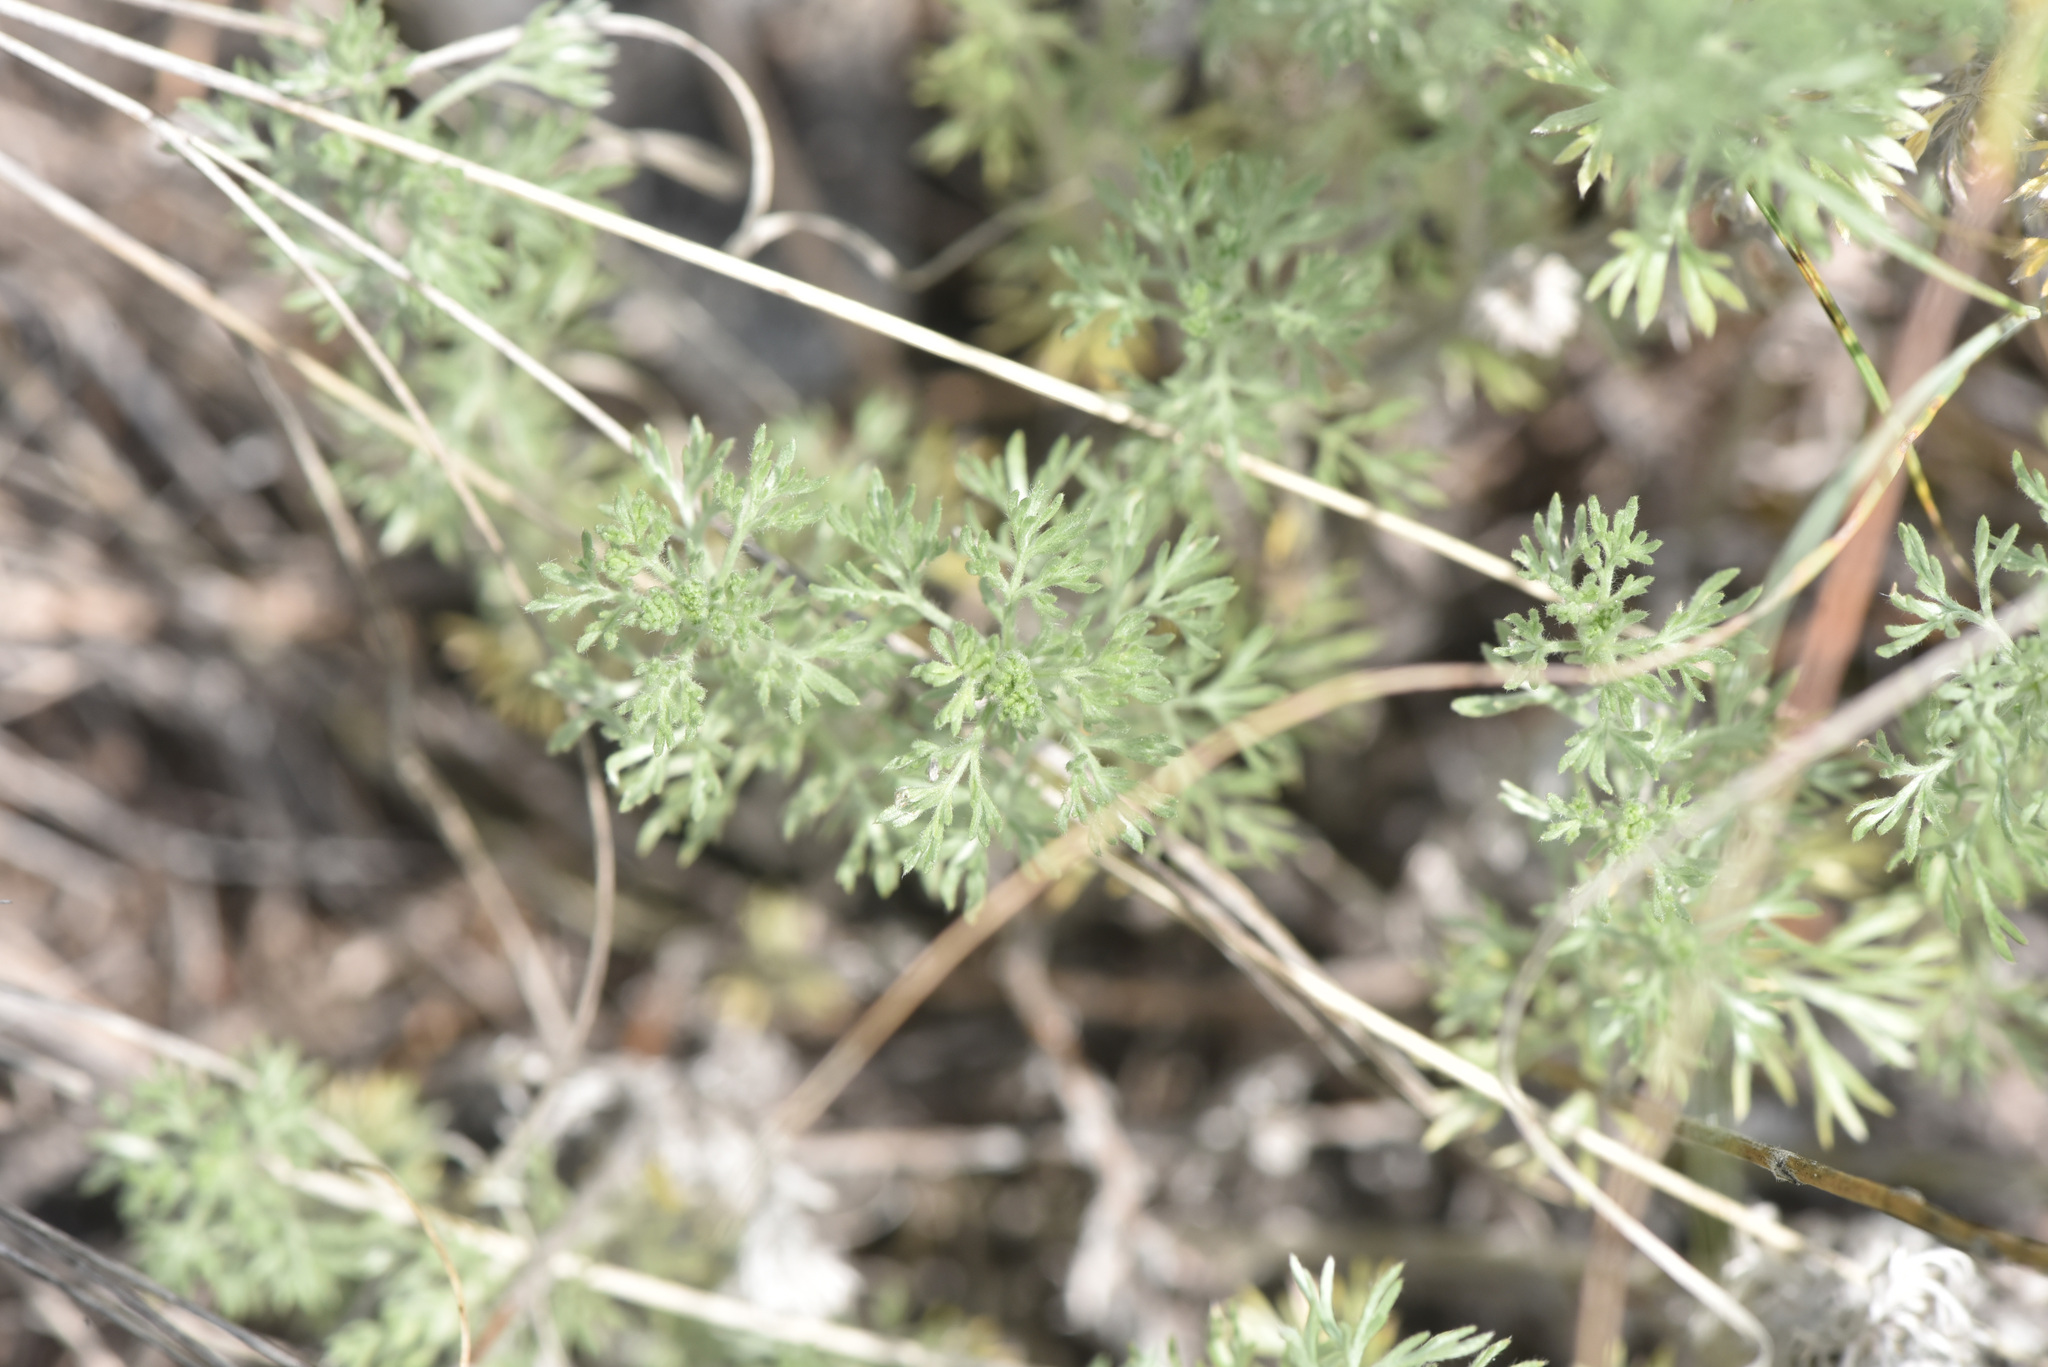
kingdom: Plantae
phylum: Tracheophyta
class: Magnoliopsida
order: Asterales
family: Asteraceae
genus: Artemisia
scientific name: Artemisia frigida
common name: Prairie sagewort
